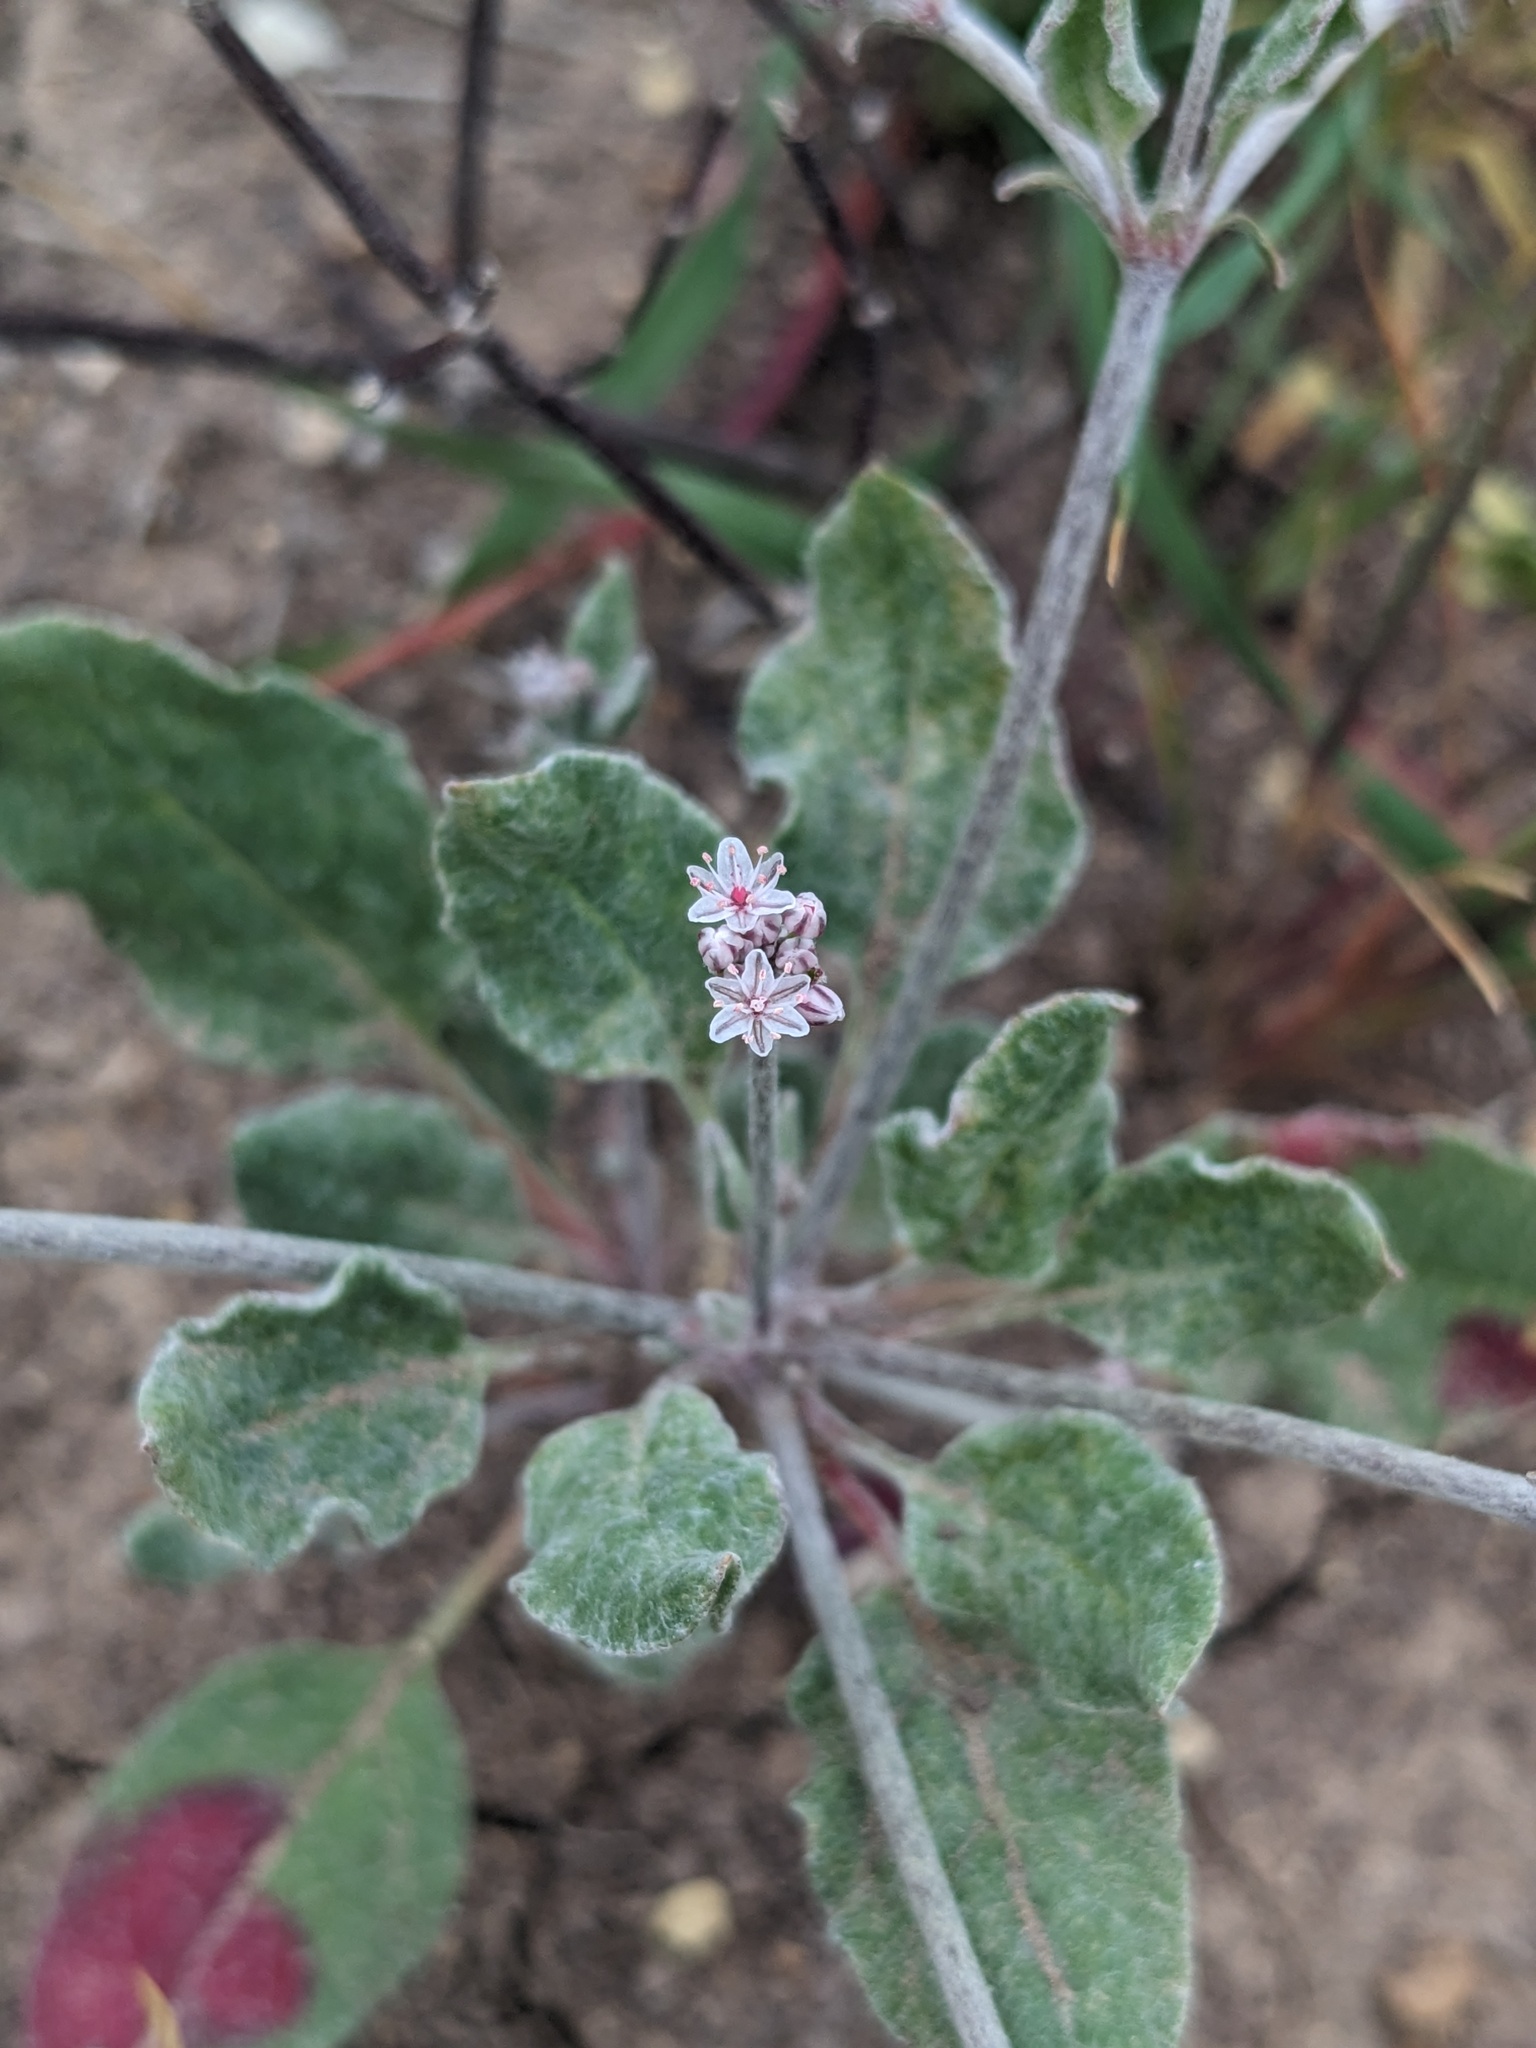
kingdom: Plantae
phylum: Tracheophyta
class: Magnoliopsida
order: Caryophyllales
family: Polygonaceae
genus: Eriogonum
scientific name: Eriogonum vestitum
